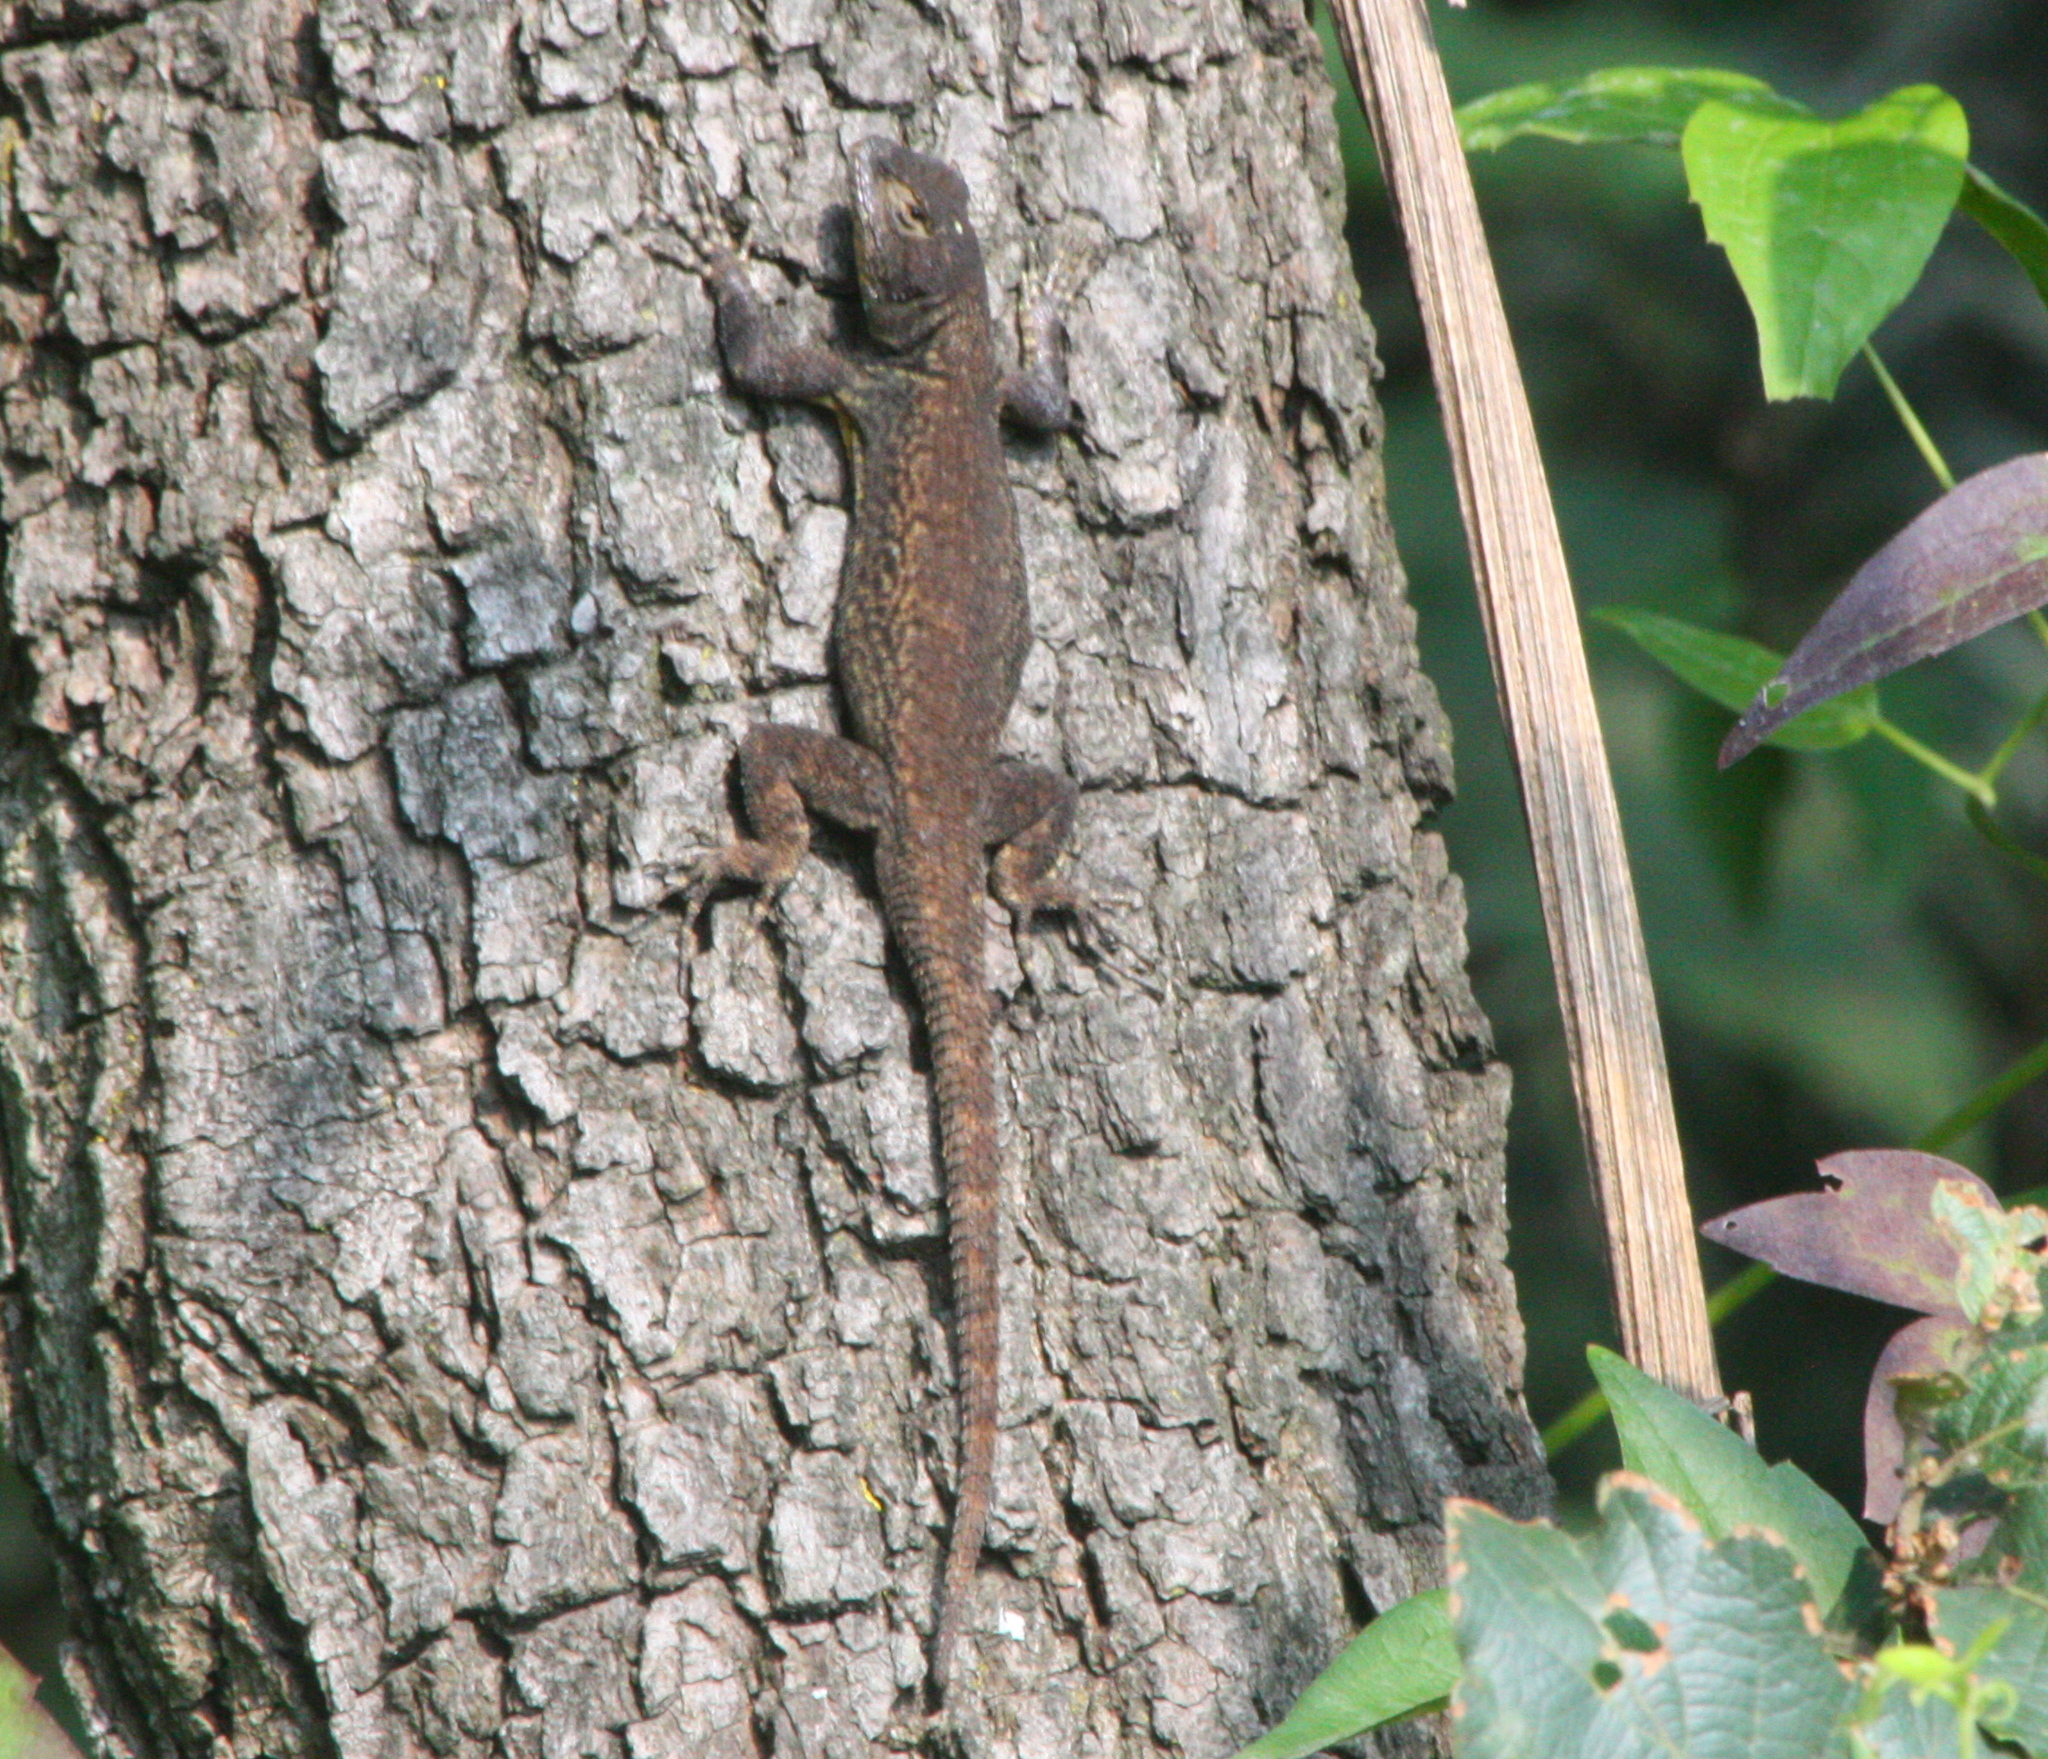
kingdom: Animalia
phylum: Chordata
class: Squamata
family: Phrynosomatidae
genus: Sceloporus
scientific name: Sceloporus grammicus
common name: Mesquite lizard
